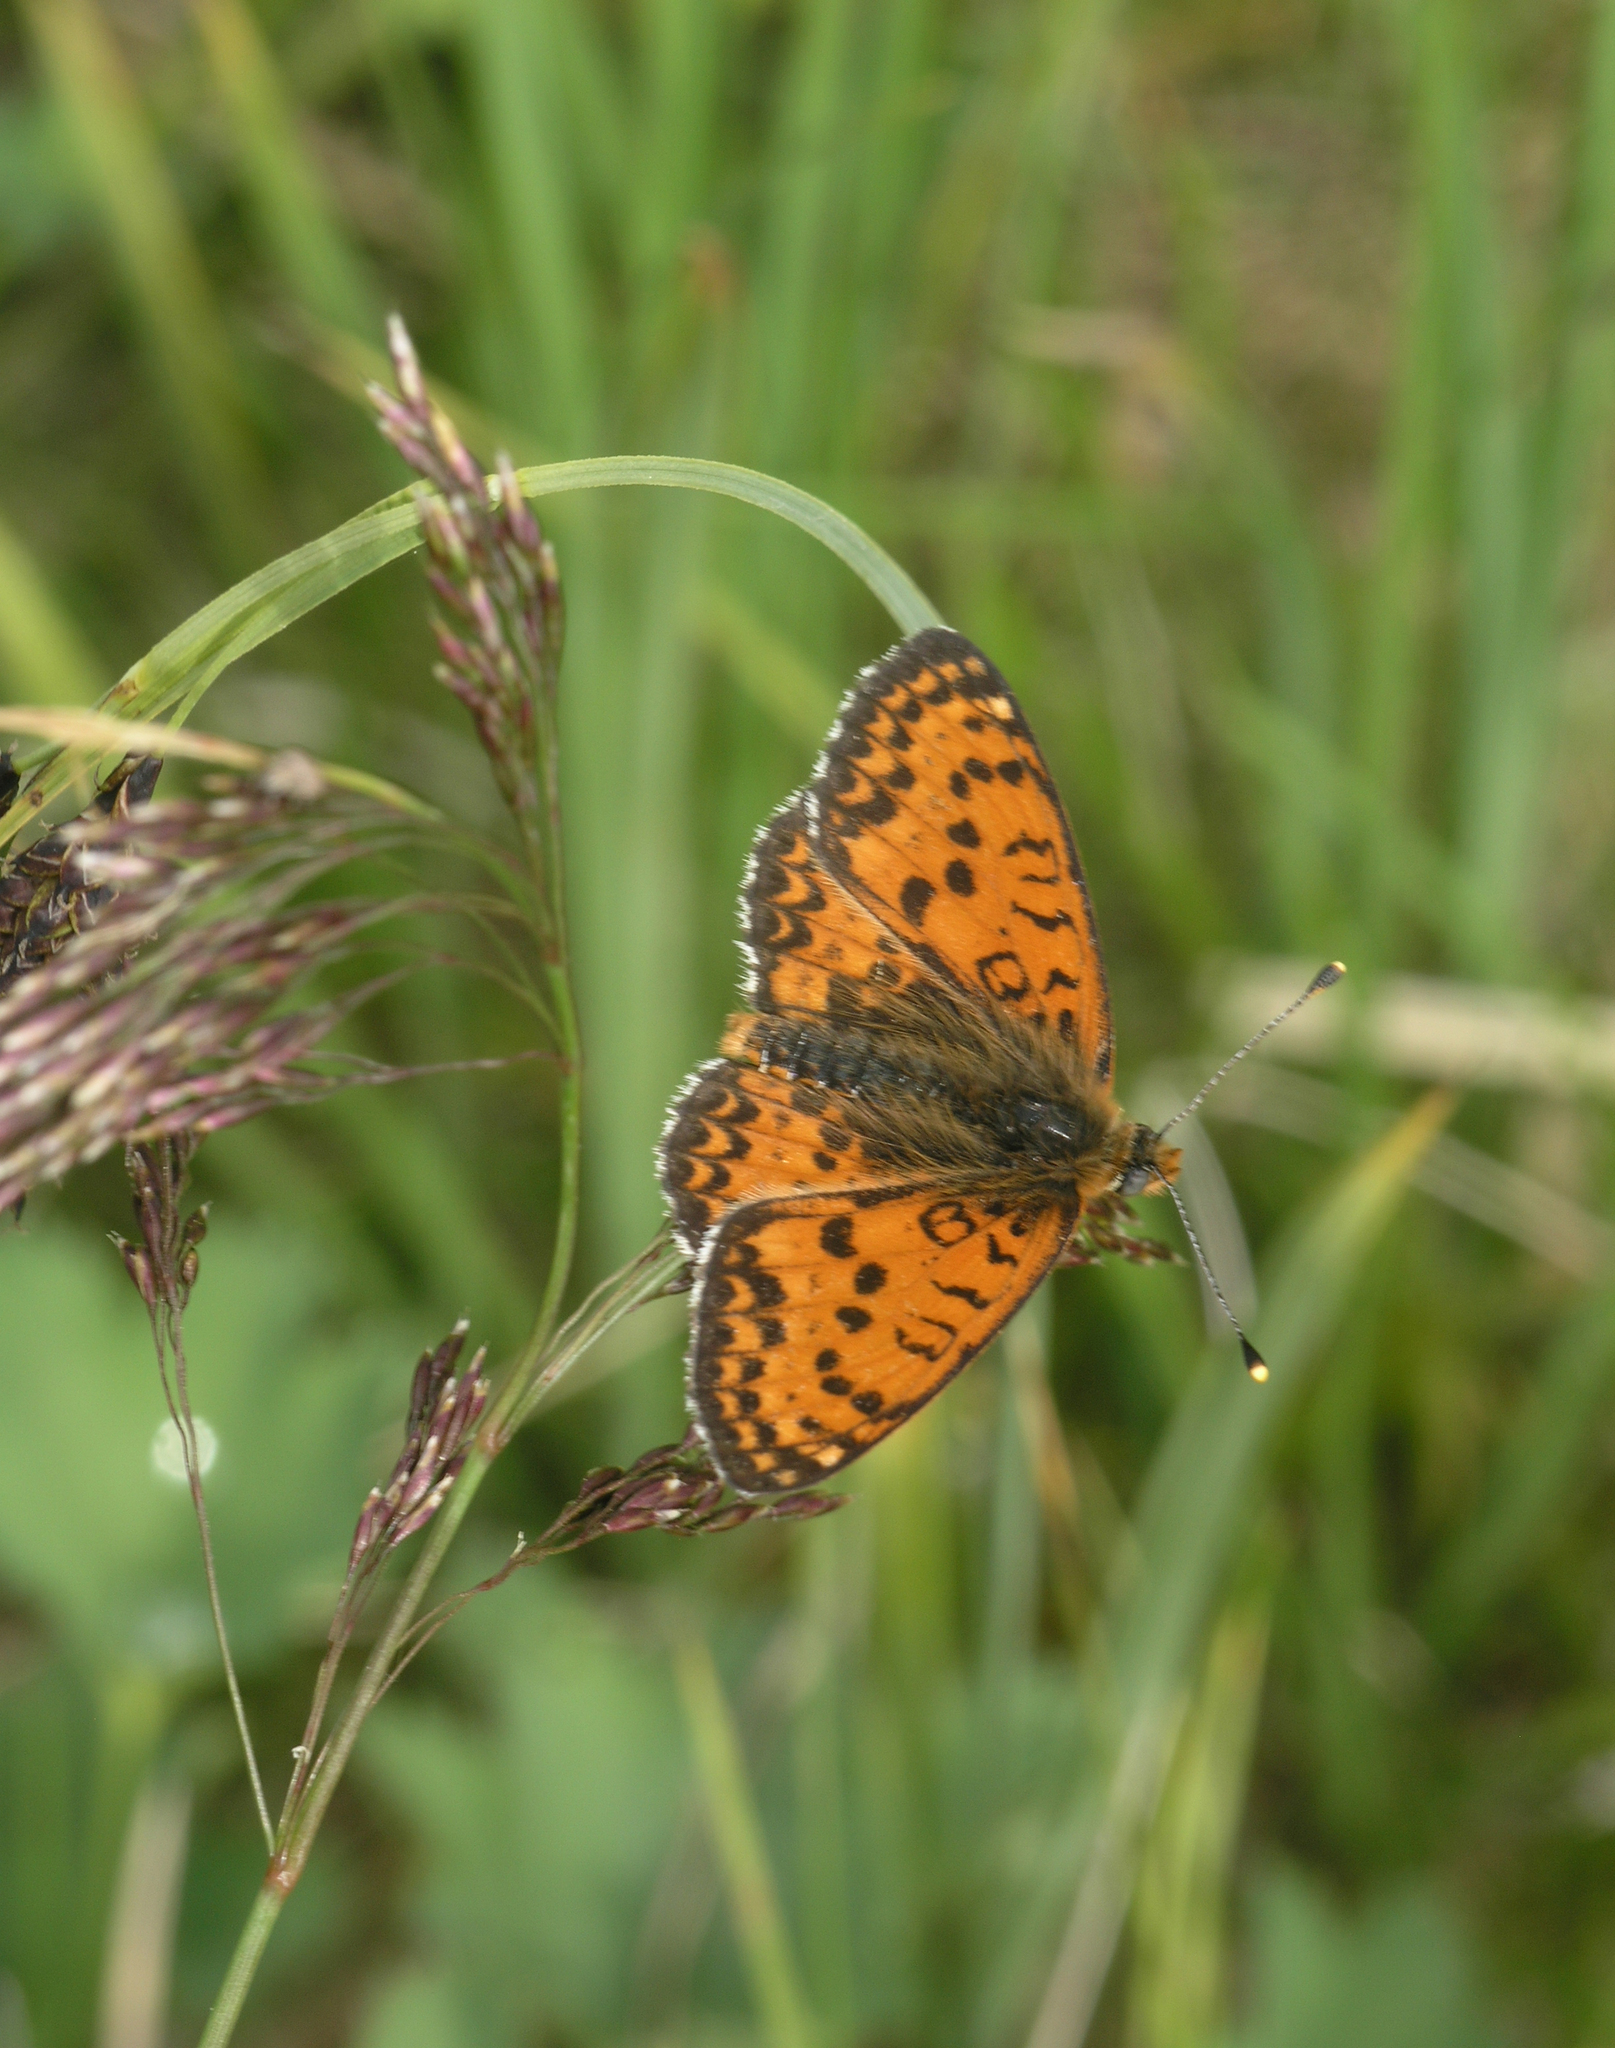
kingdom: Animalia
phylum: Arthropoda
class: Insecta
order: Lepidoptera
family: Nymphalidae
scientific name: Nymphalidae
